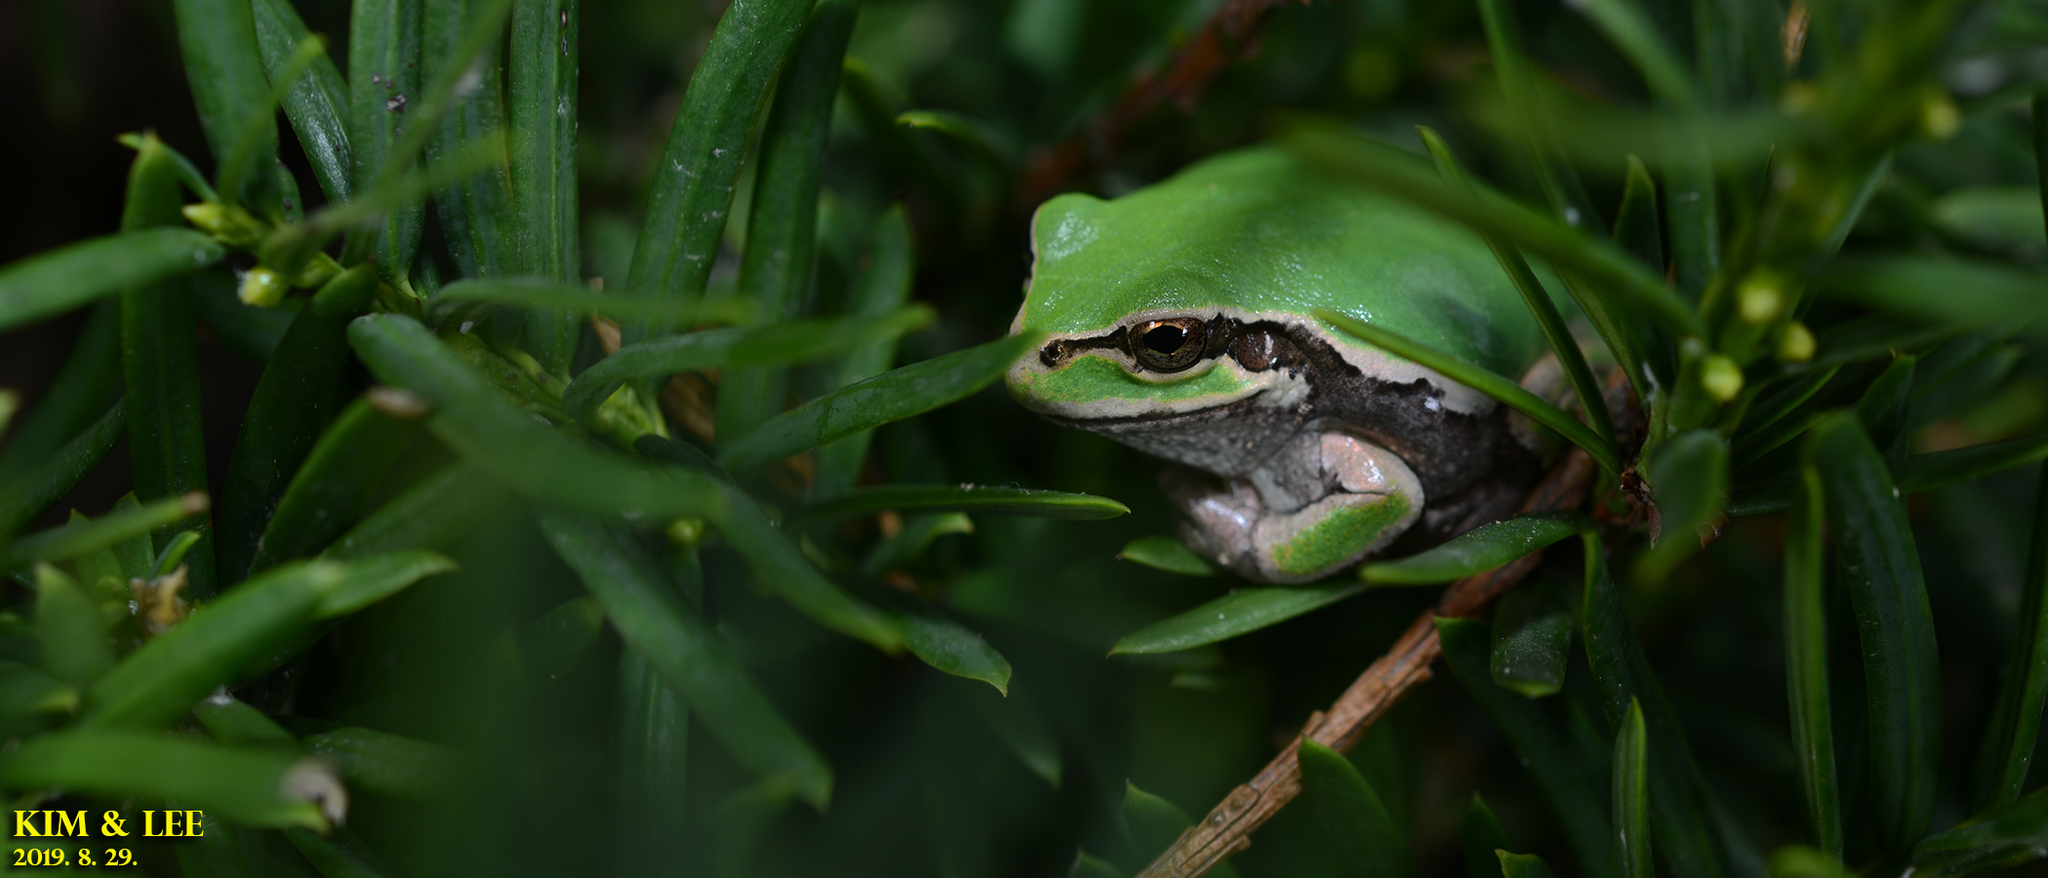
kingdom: Animalia
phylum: Chordata
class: Amphibia
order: Anura
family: Hylidae
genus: Dryophytes
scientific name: Dryophytes japonicus
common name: Japanese treefrog
